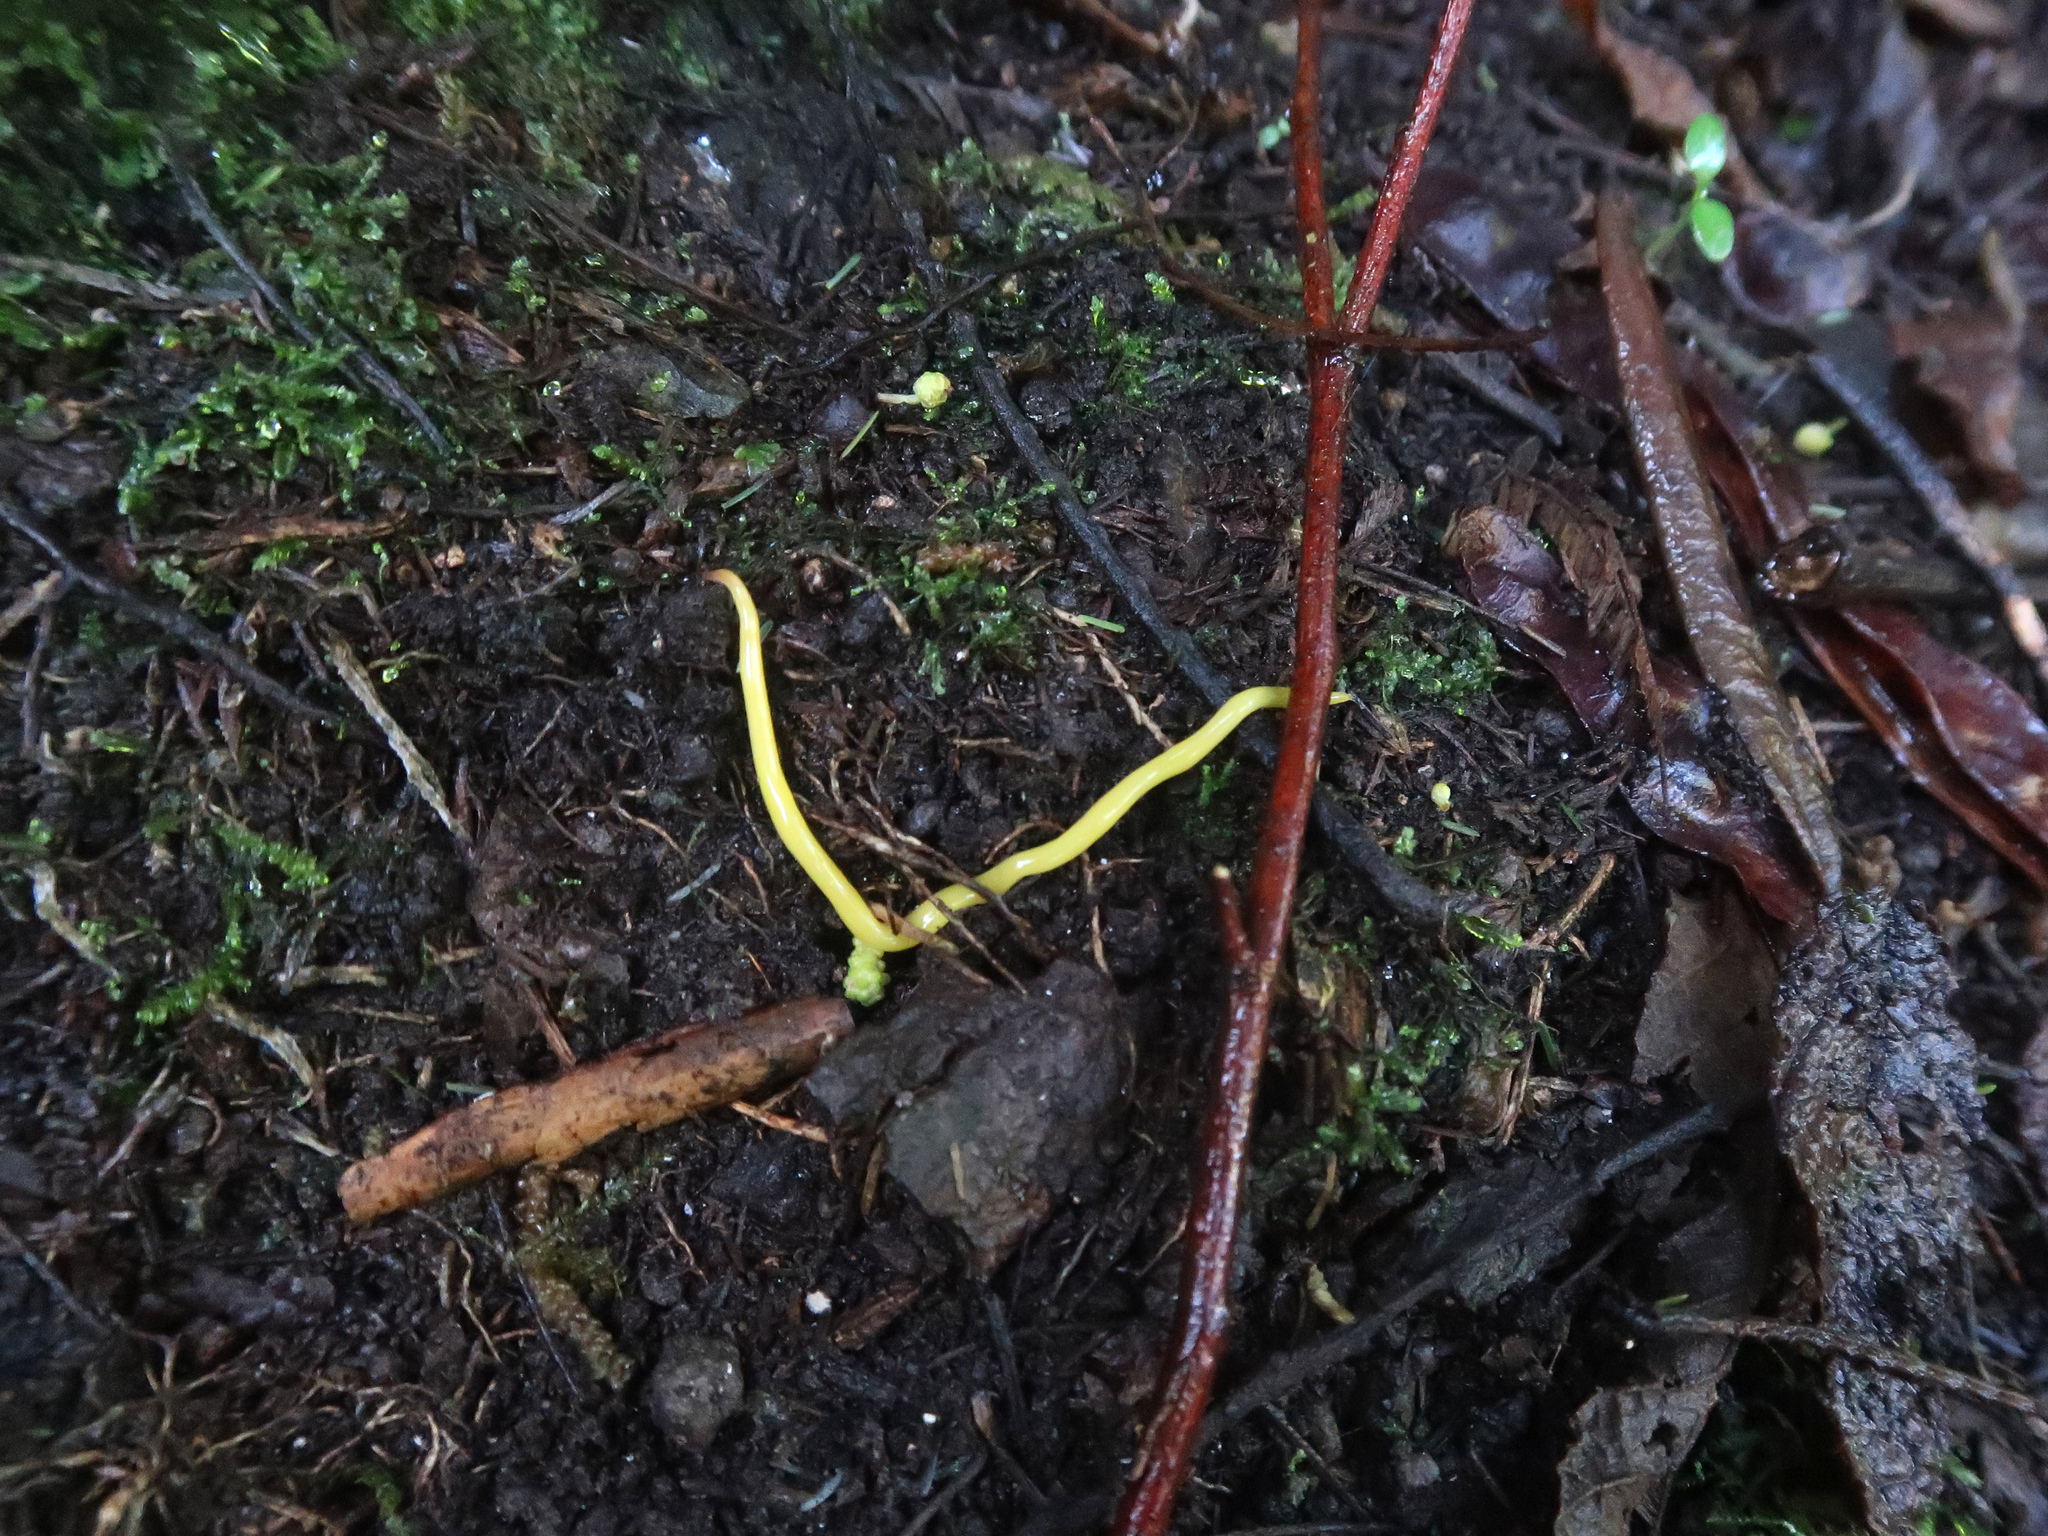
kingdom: Animalia
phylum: Platyhelminthes
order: Tricladida
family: Geoplanidae
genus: Fletchamia
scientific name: Fletchamia sugdeni
